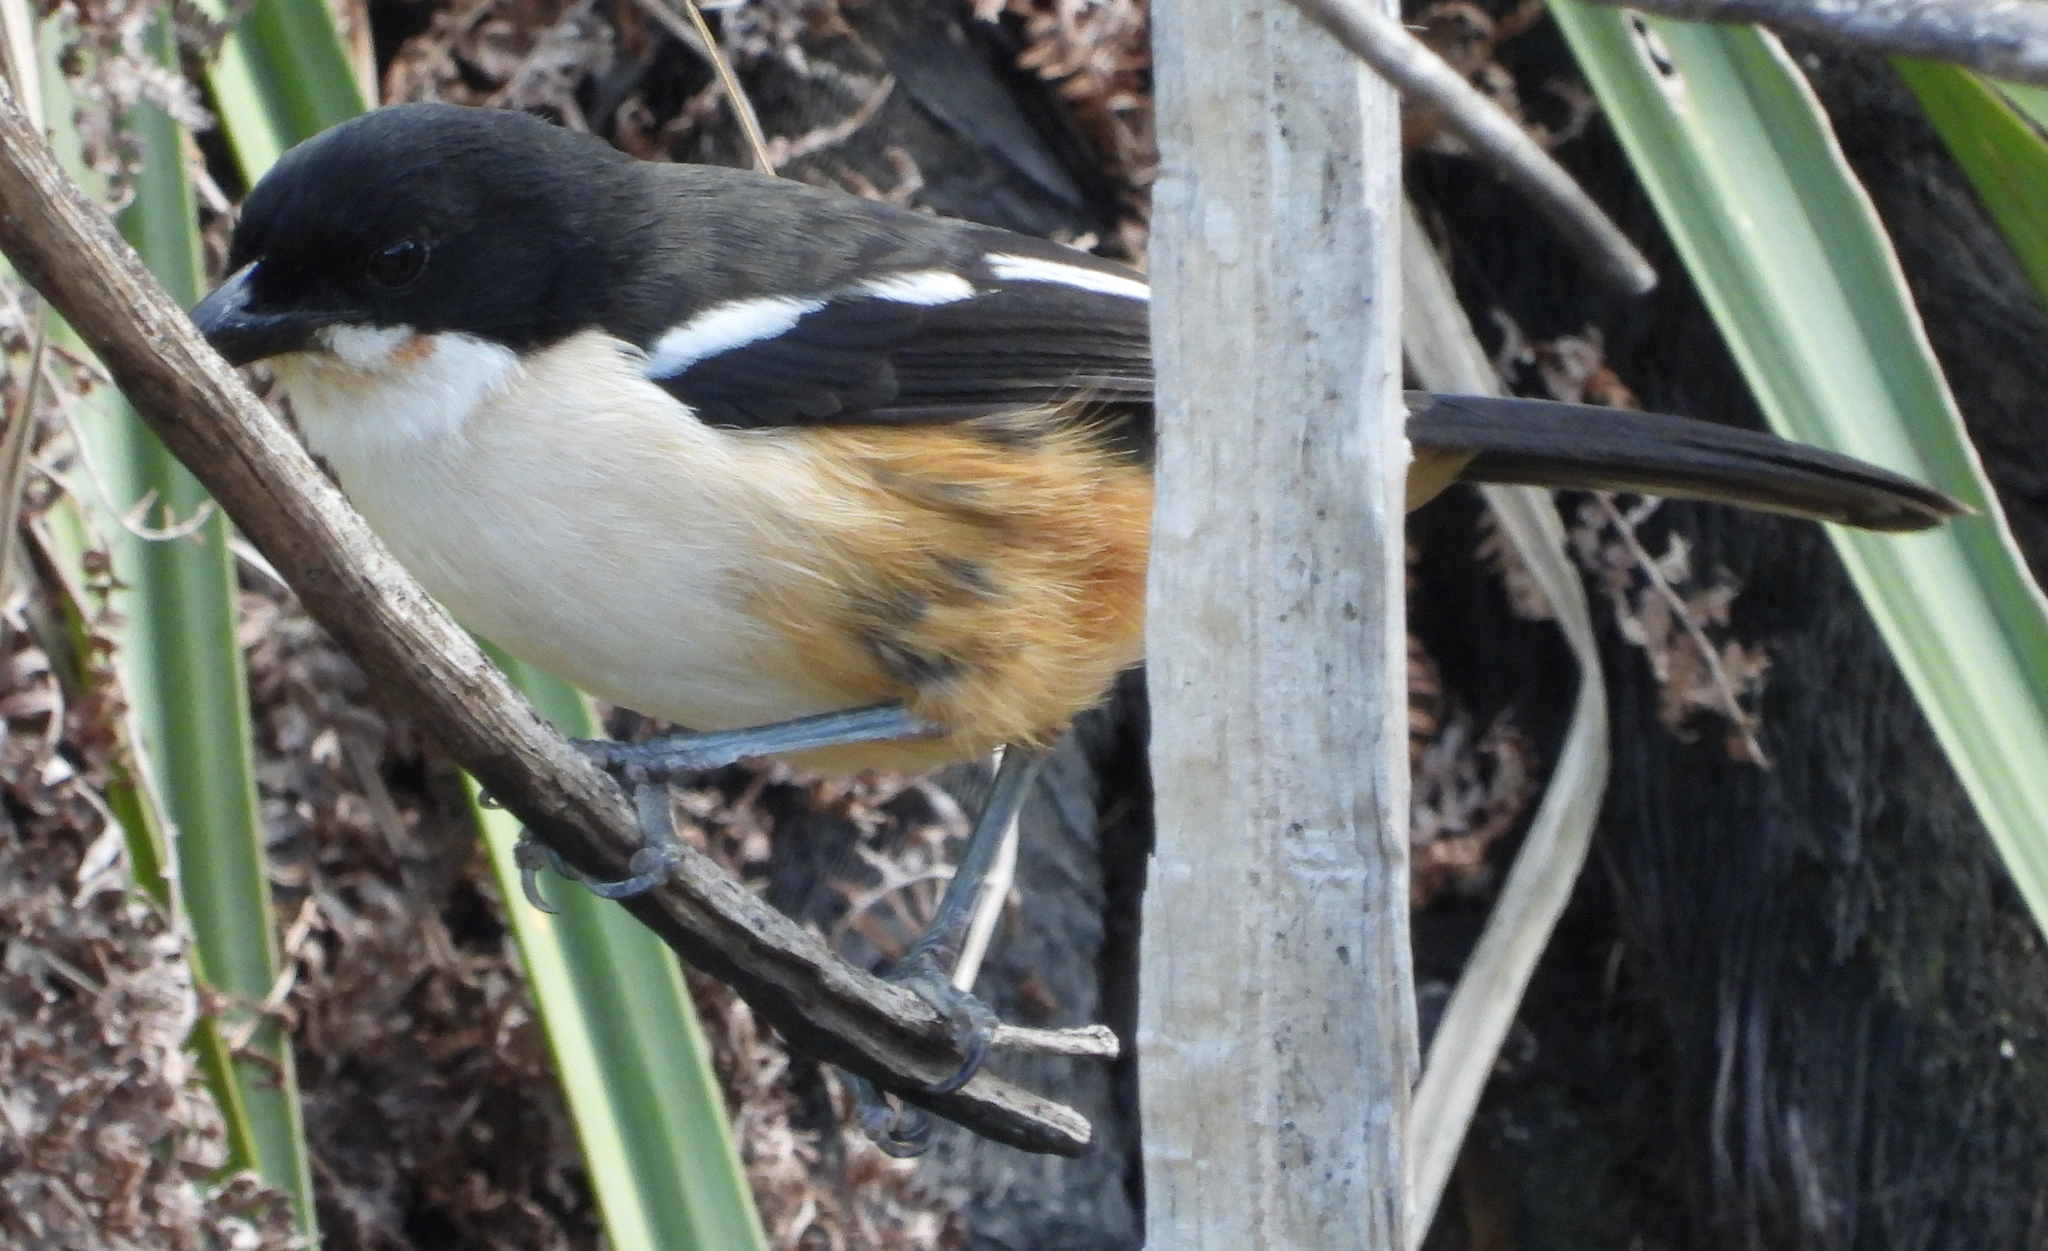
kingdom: Animalia
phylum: Chordata
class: Aves
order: Passeriformes
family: Malaconotidae
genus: Laniarius
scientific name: Laniarius ferrugineus
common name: Southern boubou
